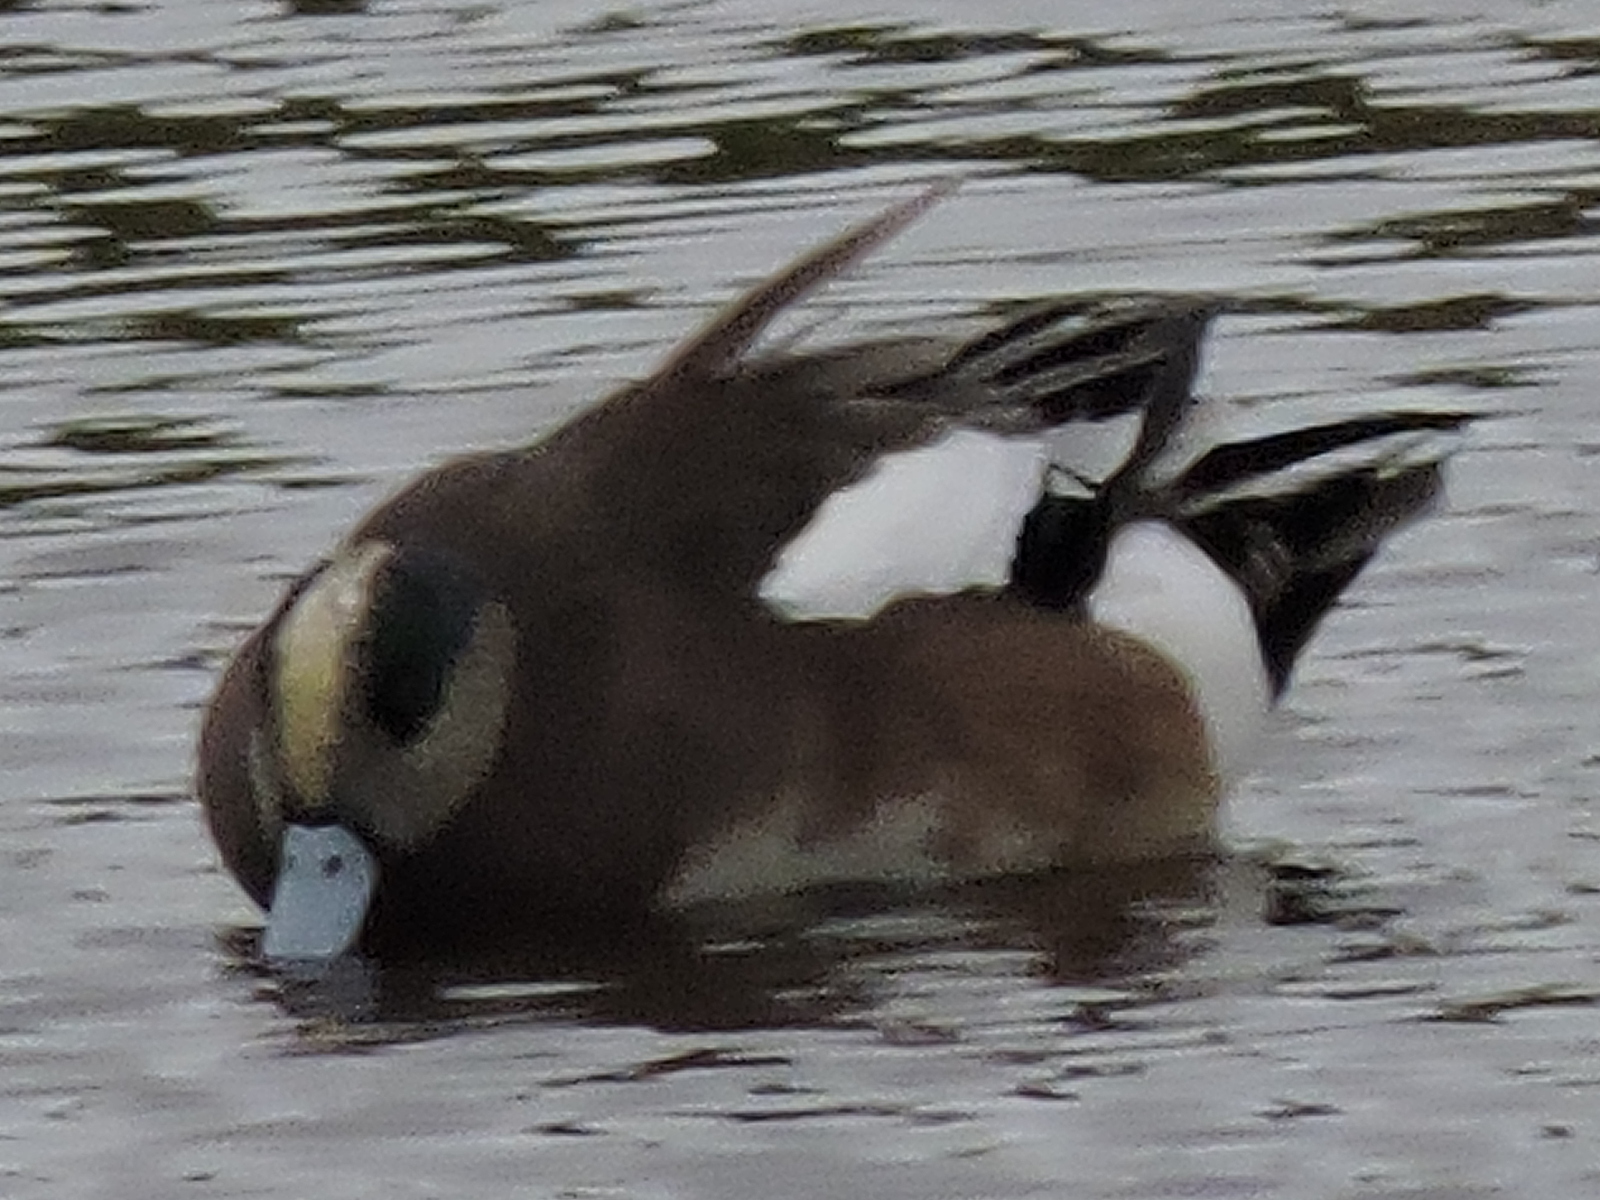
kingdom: Animalia
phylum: Chordata
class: Aves
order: Anseriformes
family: Anatidae
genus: Mareca
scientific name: Mareca americana
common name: American wigeon
